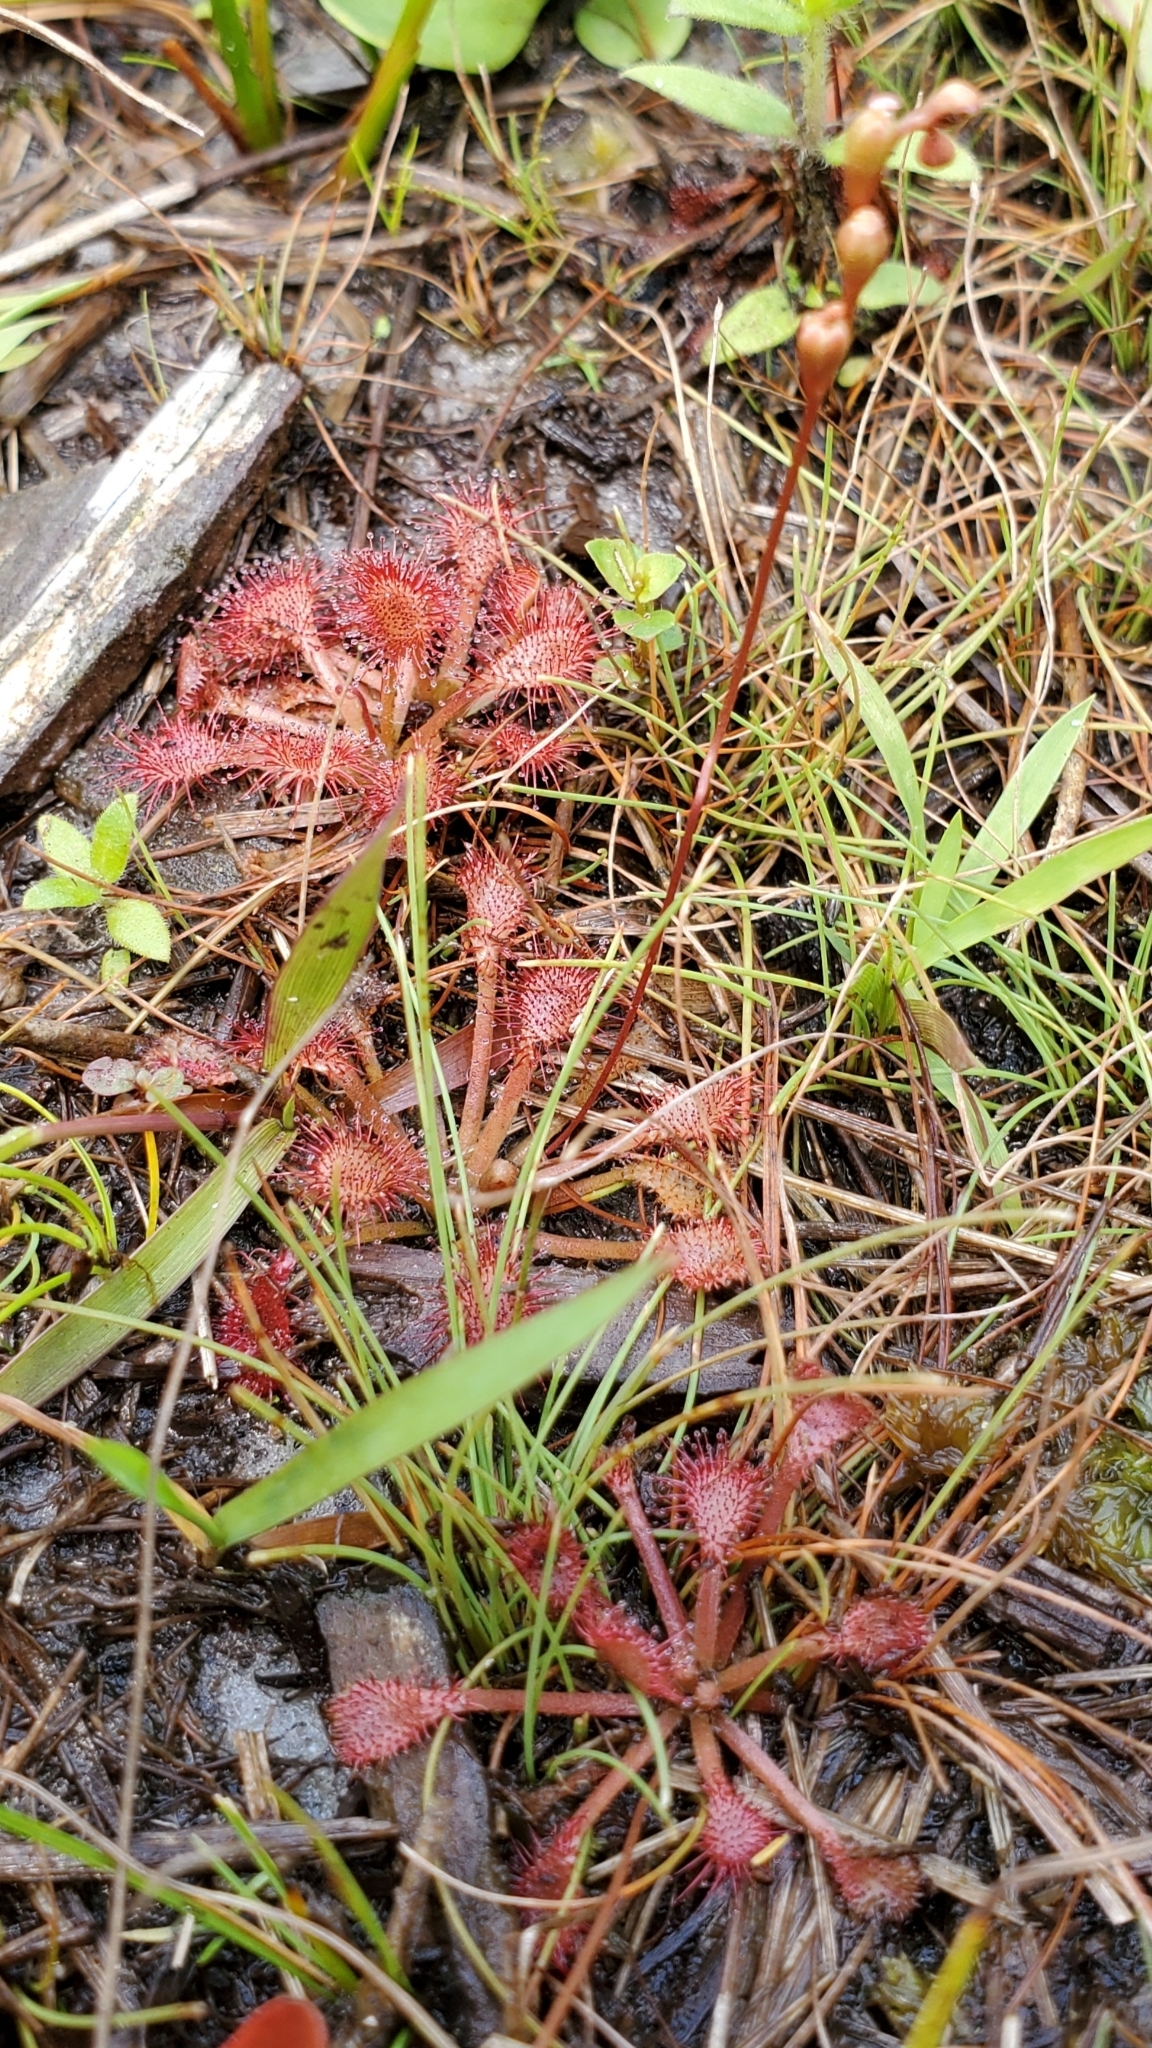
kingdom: Plantae
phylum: Tracheophyta
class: Magnoliopsida
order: Caryophyllales
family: Droseraceae
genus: Drosera
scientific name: Drosera capillaris
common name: Pink sundew
